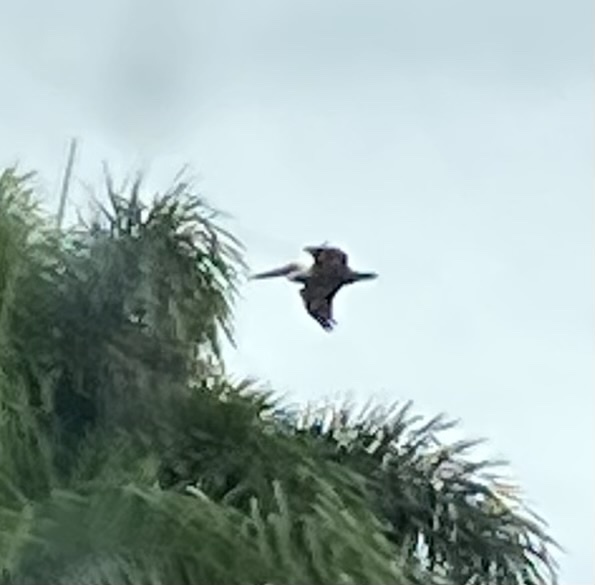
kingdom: Animalia
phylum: Chordata
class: Aves
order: Pelecaniformes
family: Pelecanidae
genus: Pelecanus
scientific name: Pelecanus occidentalis
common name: Brown pelican
